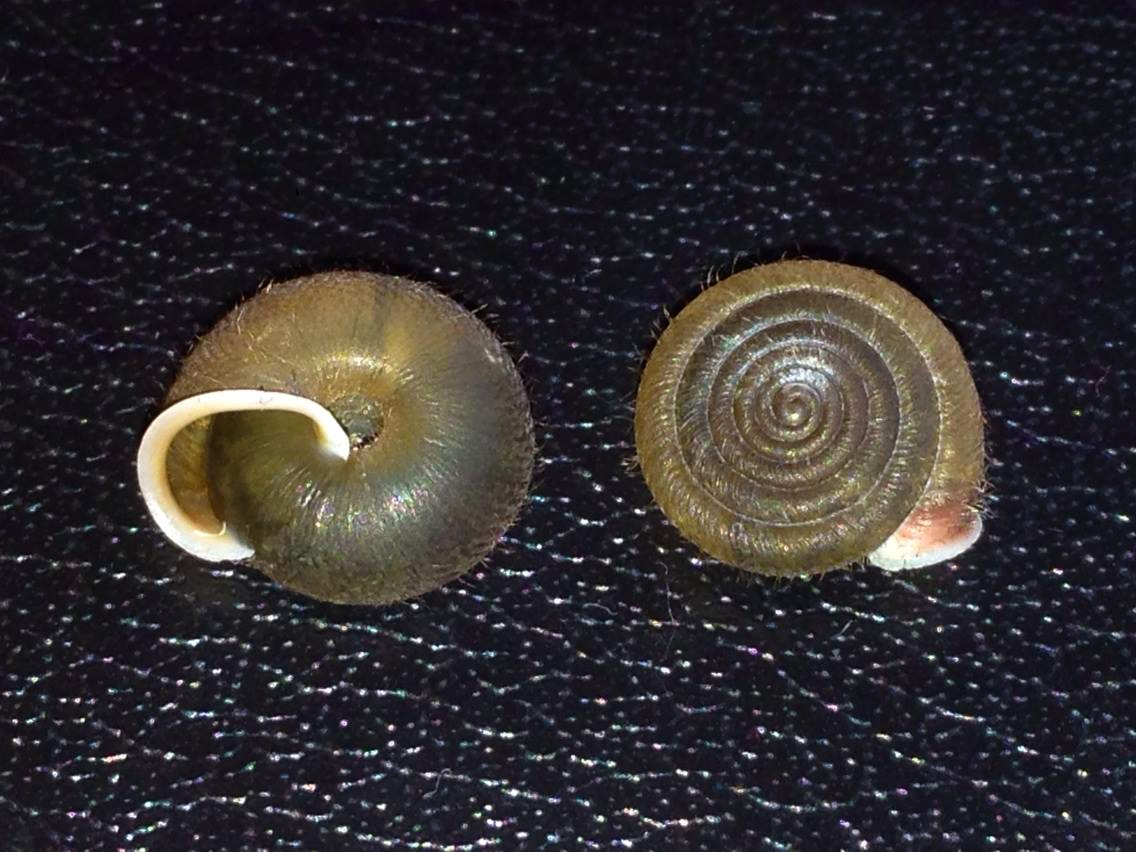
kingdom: Animalia
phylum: Mollusca
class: Gastropoda
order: Stylommatophora
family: Helicodontidae
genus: Lindholmiola
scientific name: Lindholmiola corcyrensis
